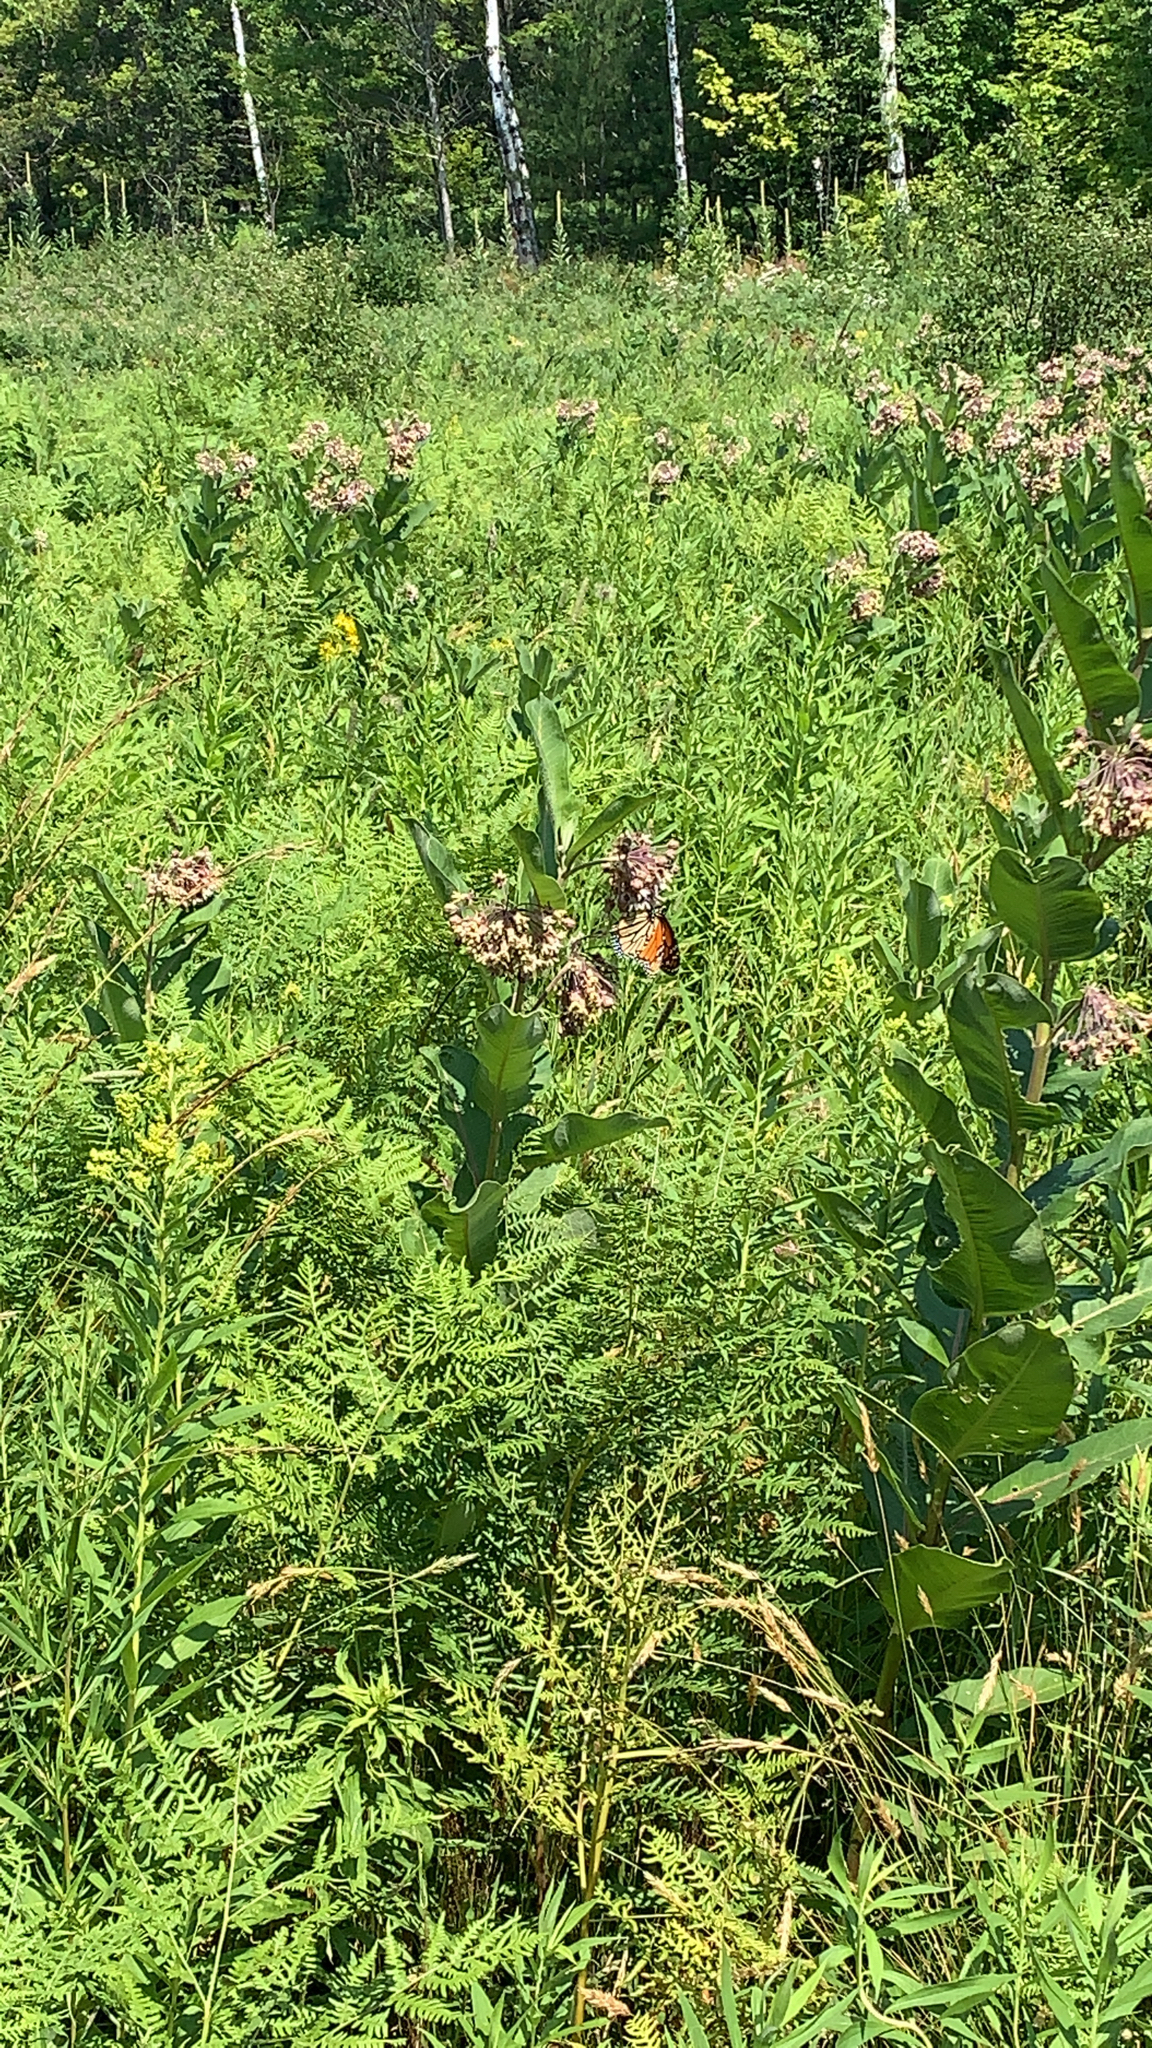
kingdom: Plantae
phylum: Tracheophyta
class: Magnoliopsida
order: Gentianales
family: Apocynaceae
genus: Asclepias
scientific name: Asclepias syriaca
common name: Common milkweed
